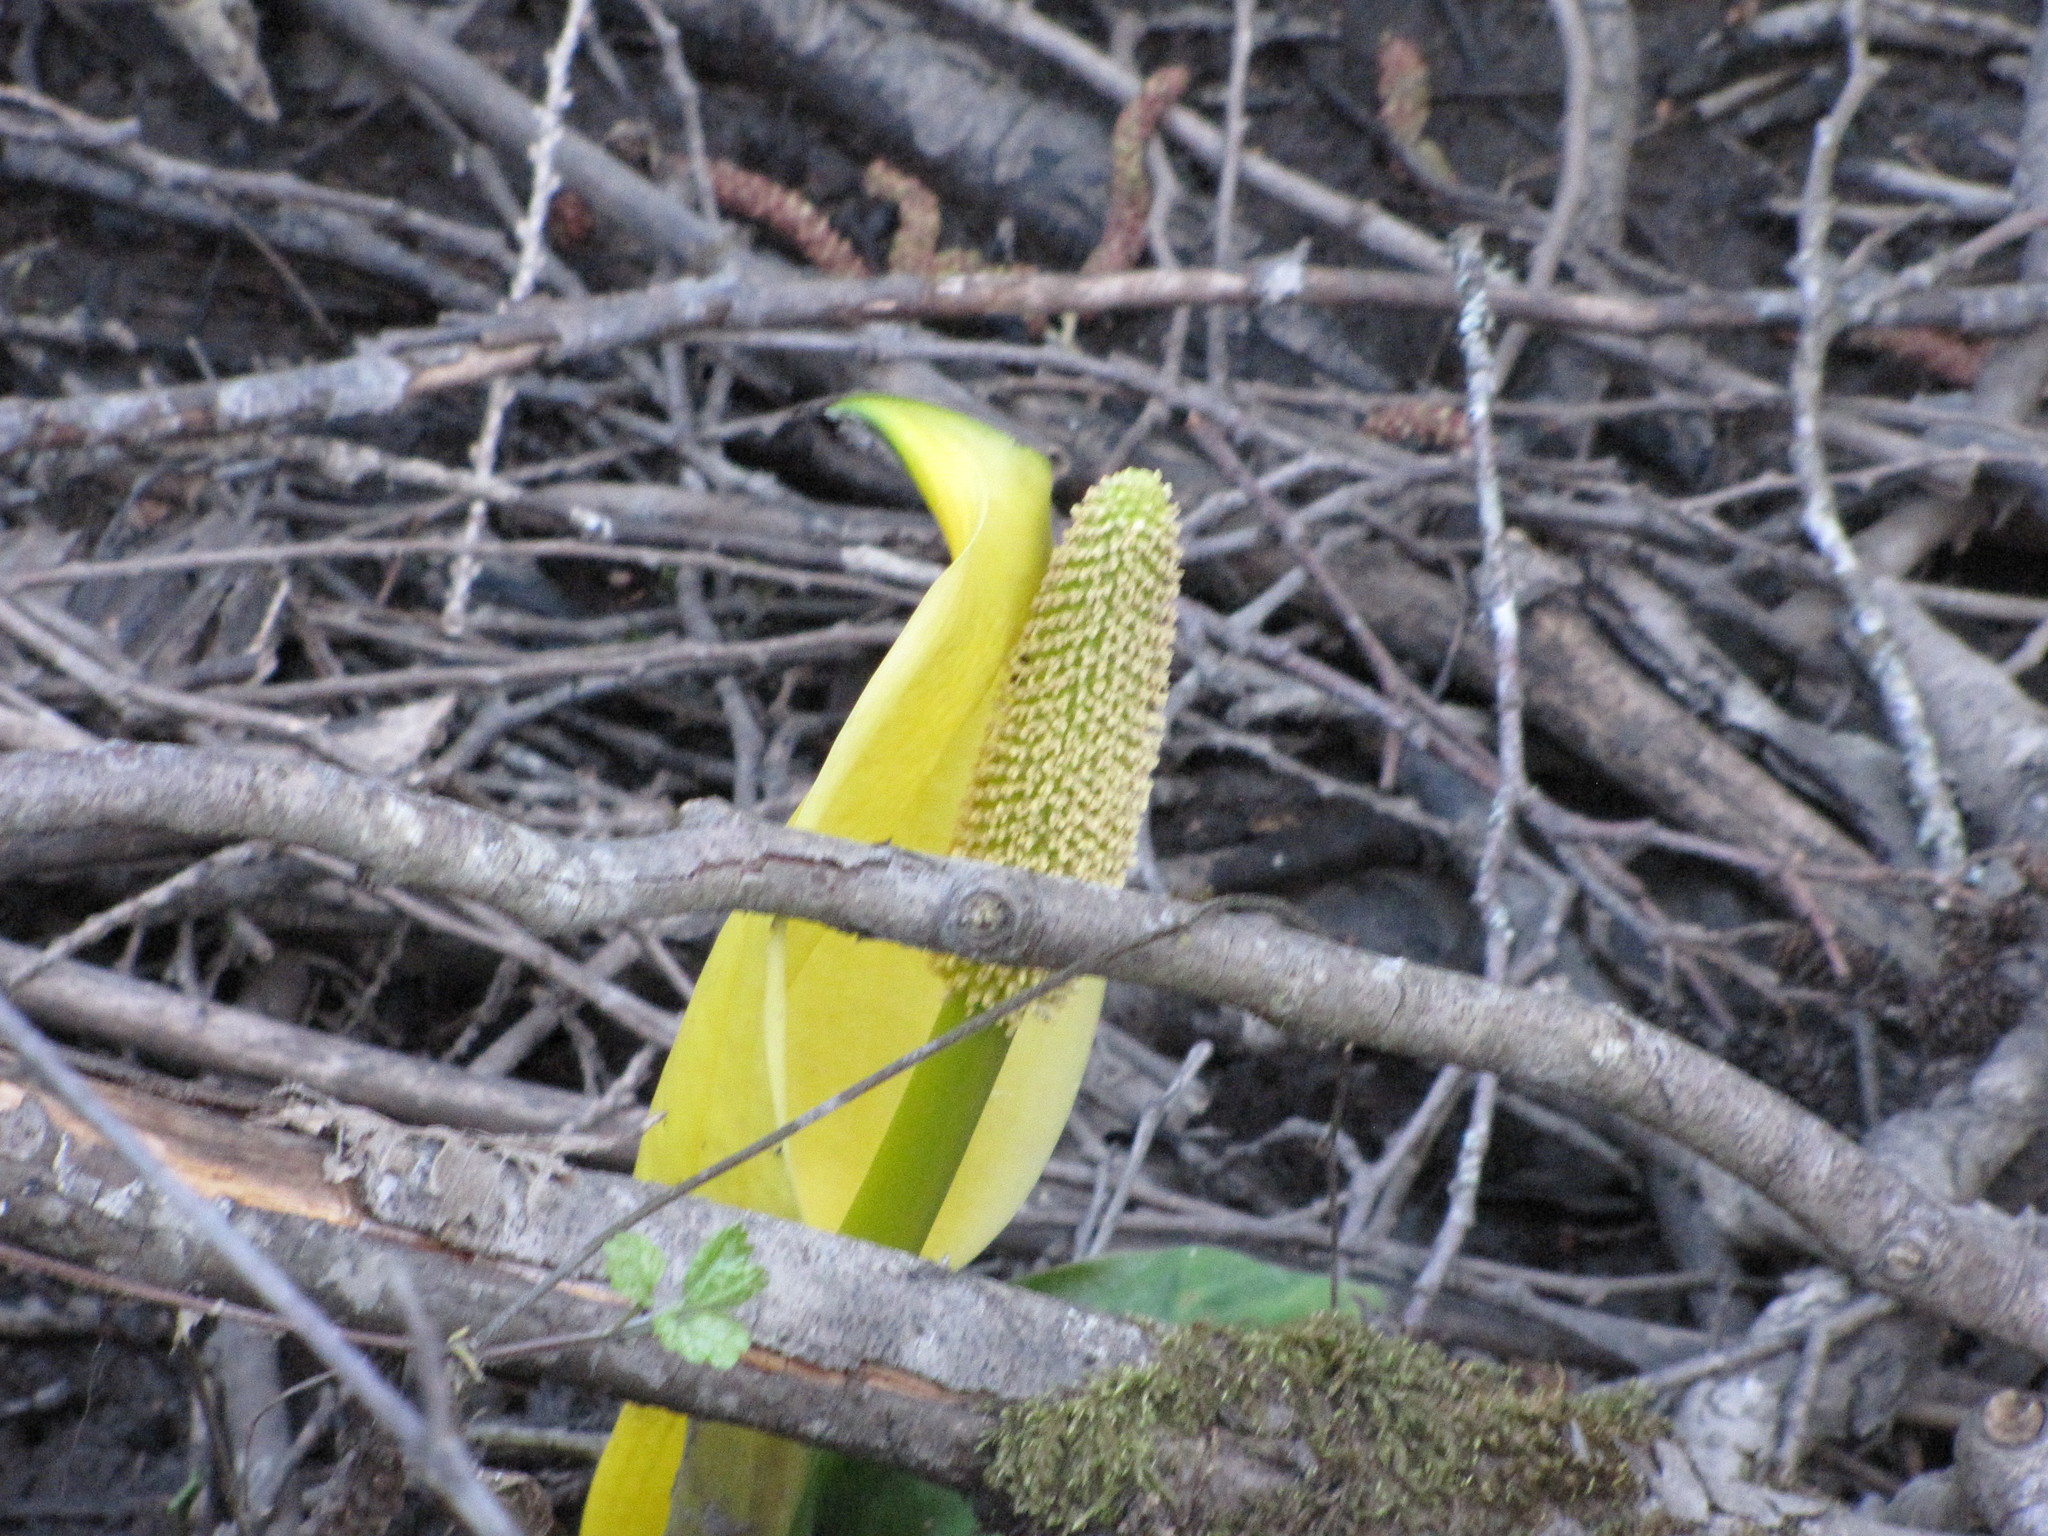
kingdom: Plantae
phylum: Tracheophyta
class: Liliopsida
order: Alismatales
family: Araceae
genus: Lysichiton
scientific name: Lysichiton americanus
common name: American skunk cabbage
